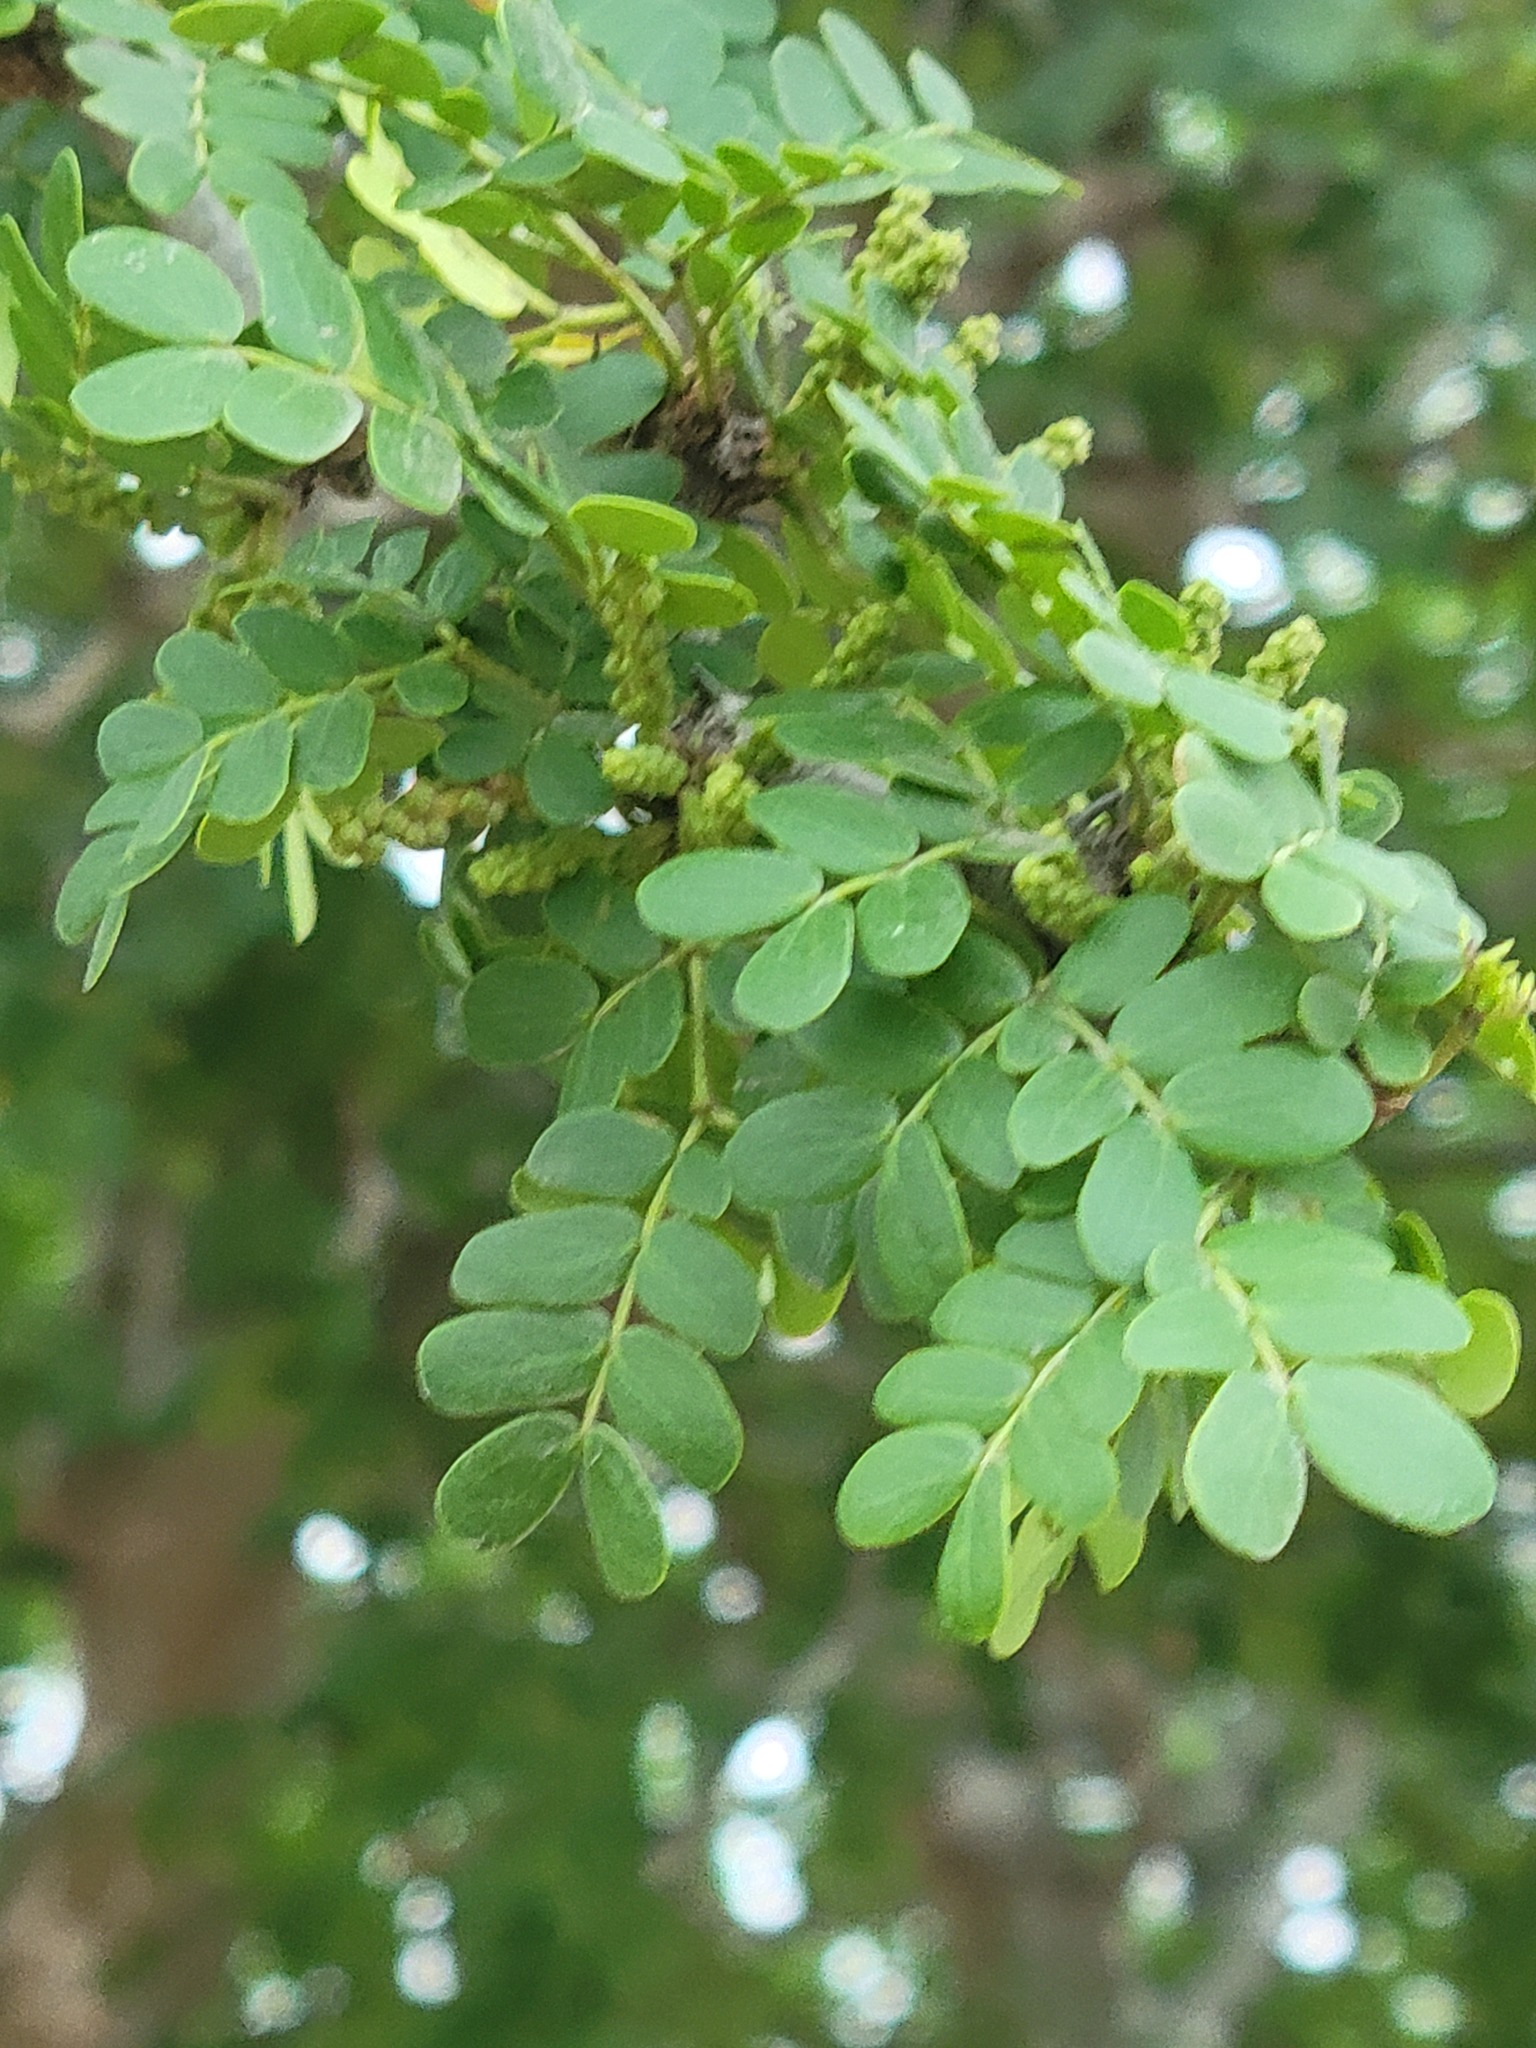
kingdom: Plantae
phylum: Tracheophyta
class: Magnoliopsida
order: Fabales
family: Fabaceae
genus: Ebenopsis
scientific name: Ebenopsis ebano
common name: Ebony blackbead
